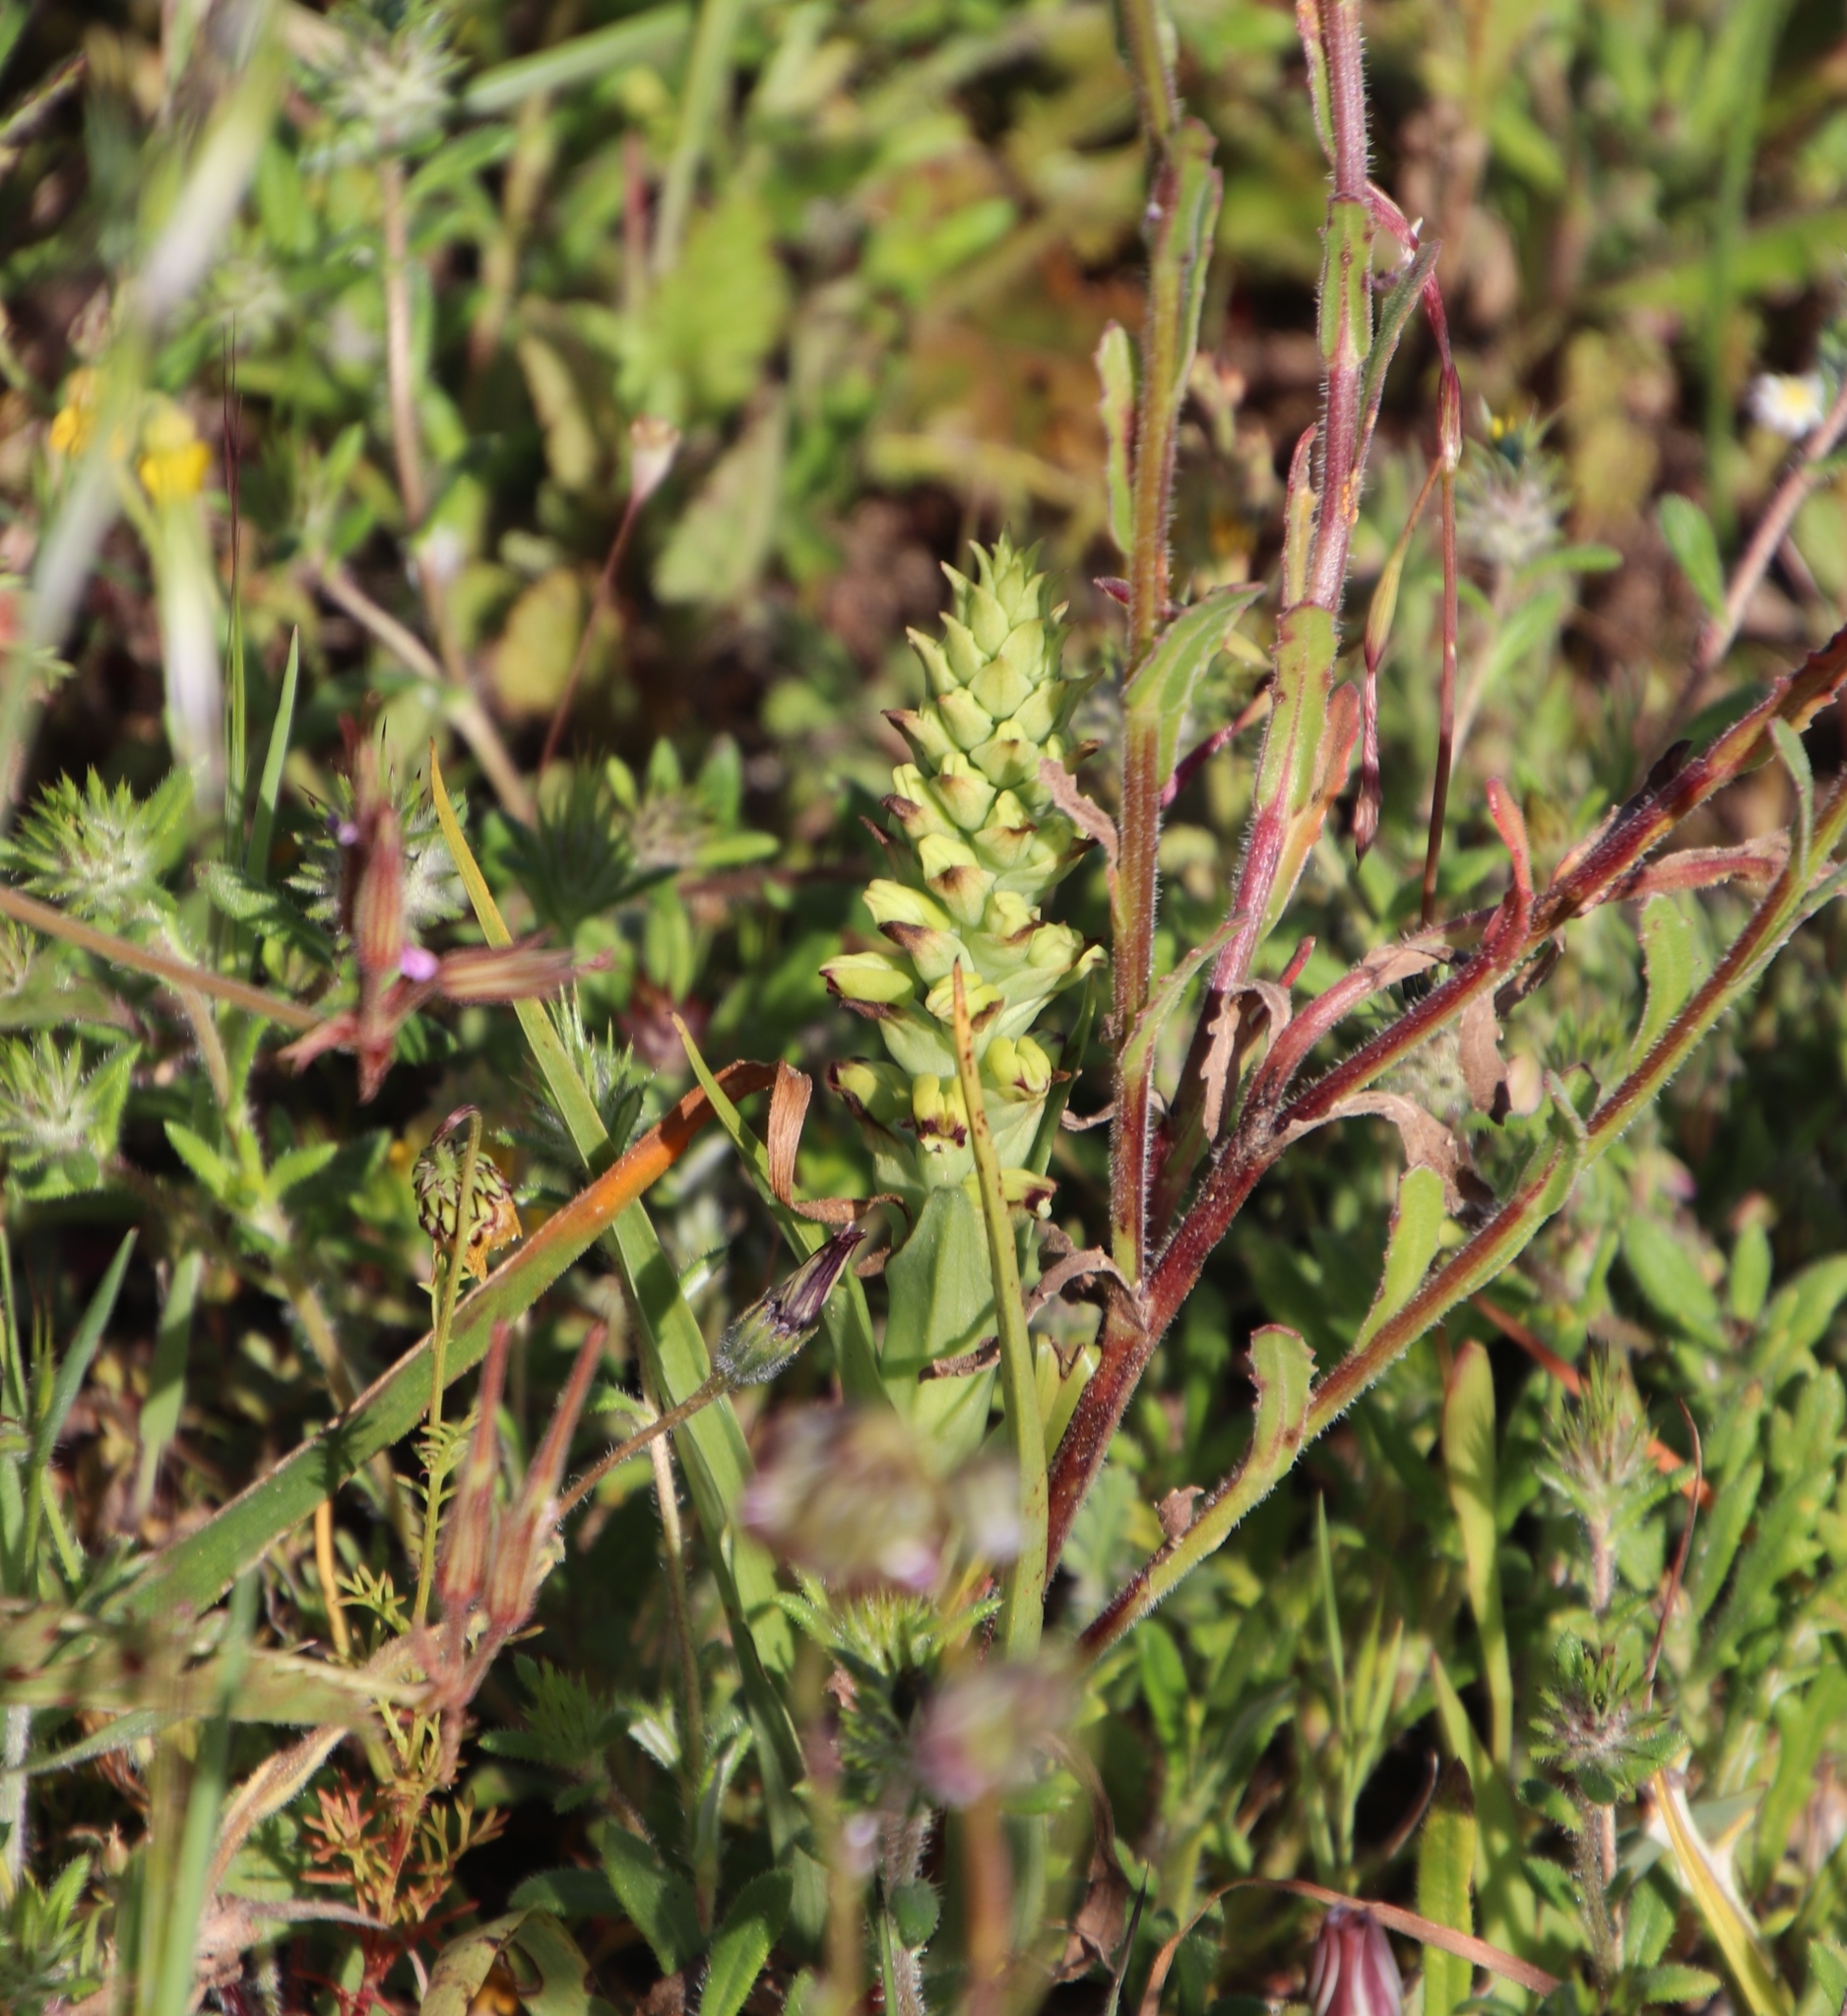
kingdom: Plantae
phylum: Tracheophyta
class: Liliopsida
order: Asparagales
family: Orchidaceae
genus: Corycium
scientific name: Corycium orobanchoides
